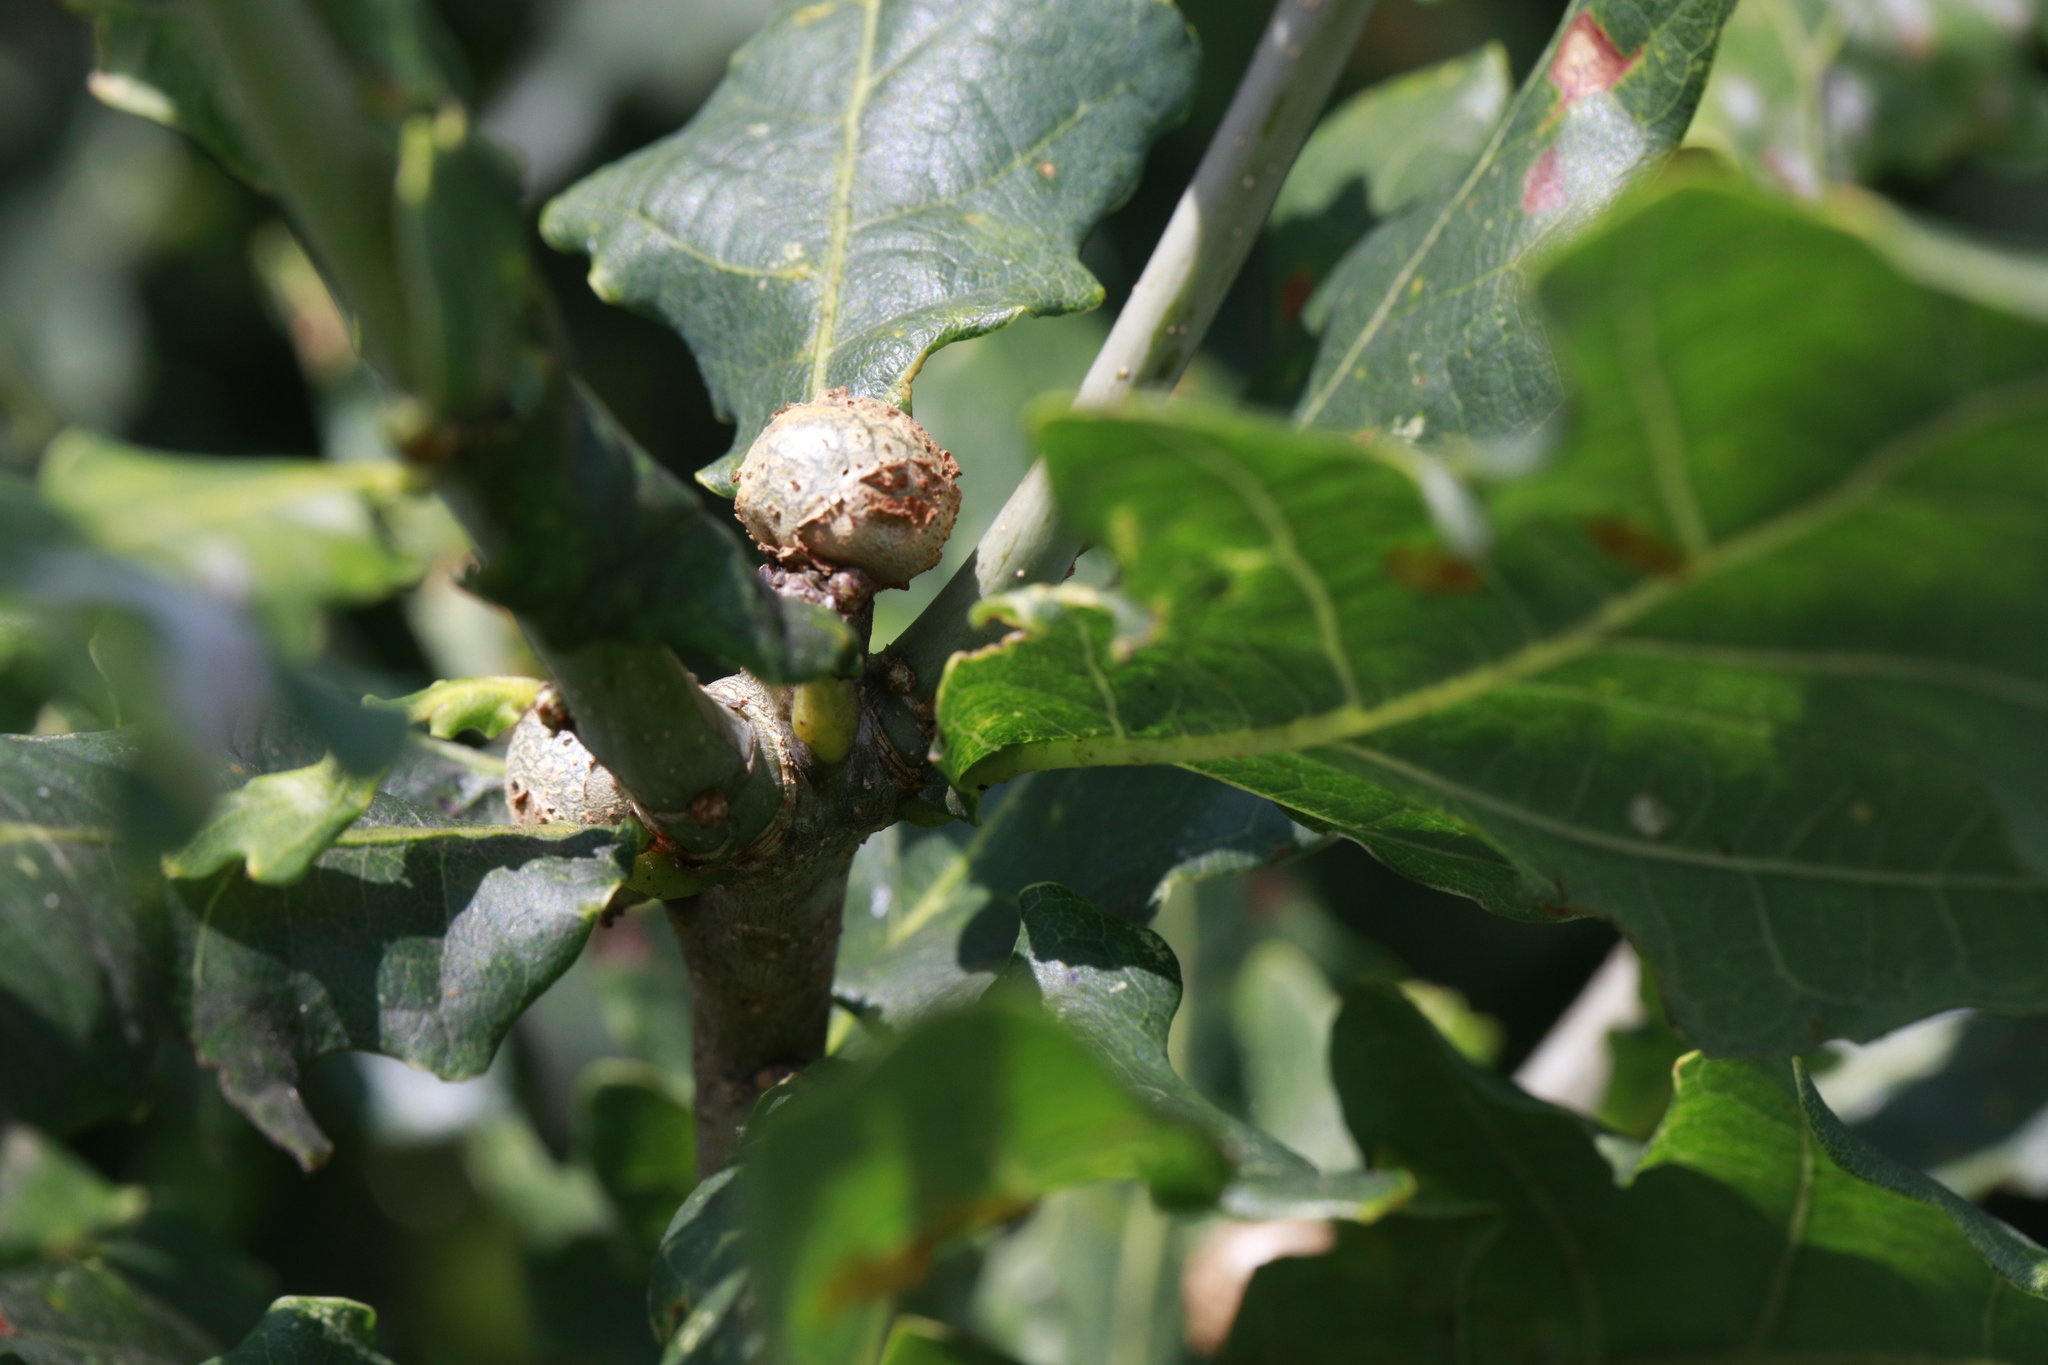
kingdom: Animalia
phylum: Arthropoda
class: Insecta
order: Hymenoptera
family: Cynipidae
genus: Andricus
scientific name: Andricus lignicolus
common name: Cola-nut gall
